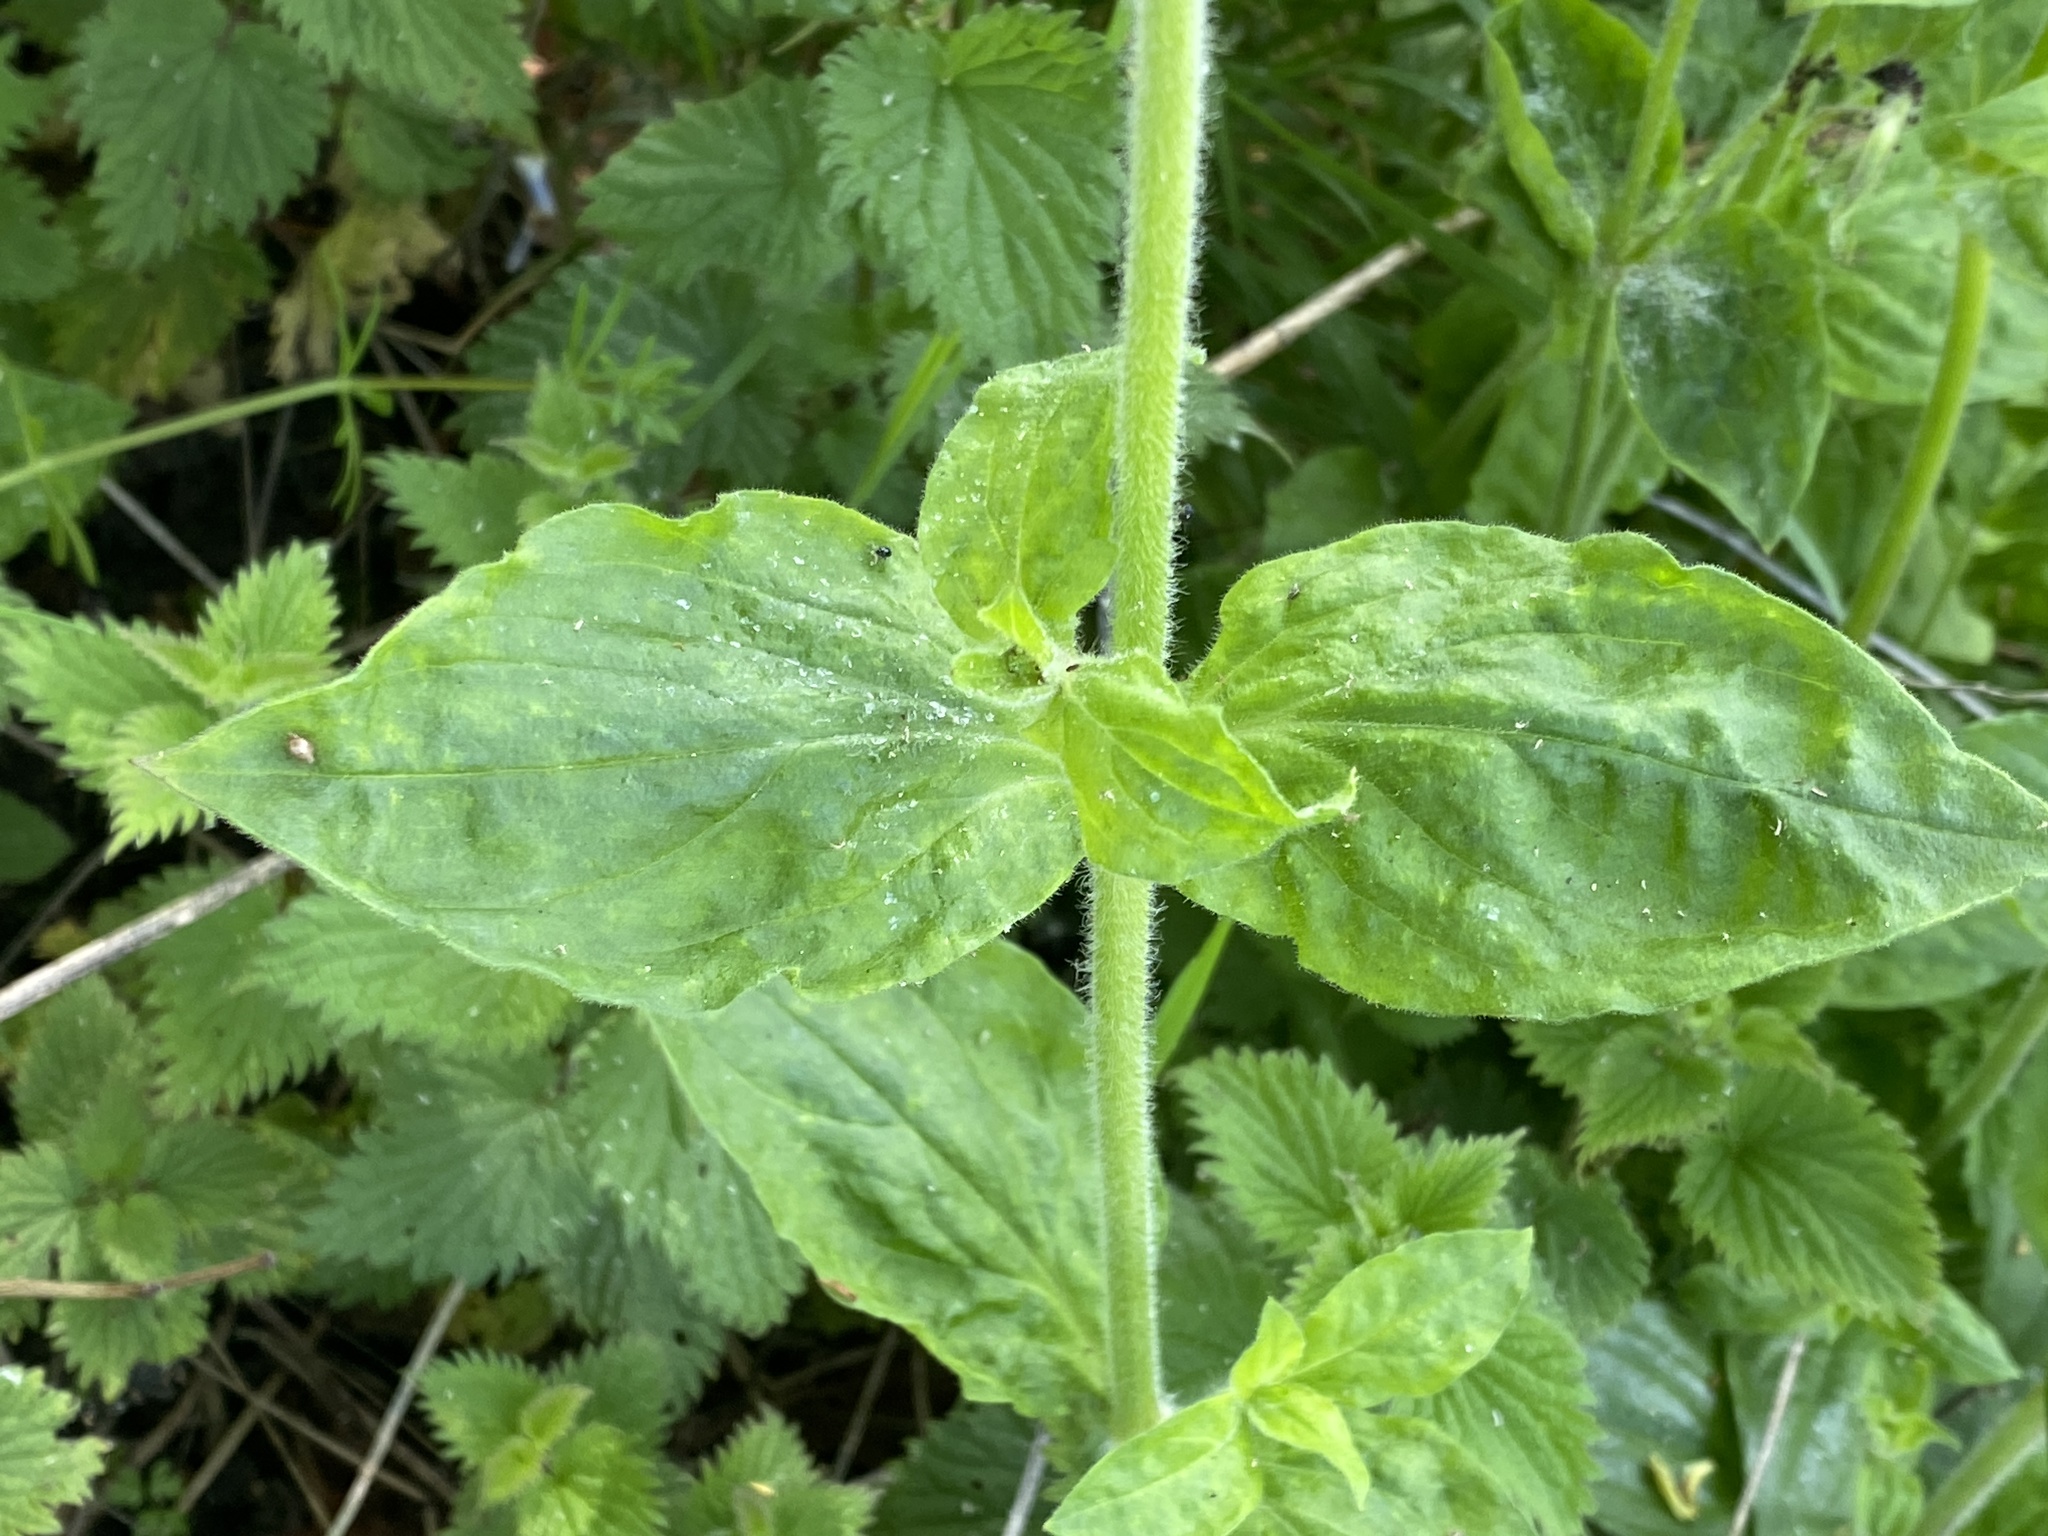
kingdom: Plantae
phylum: Tracheophyta
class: Magnoliopsida
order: Caryophyllales
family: Caryophyllaceae
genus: Silene
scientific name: Silene dioica
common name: Red campion
